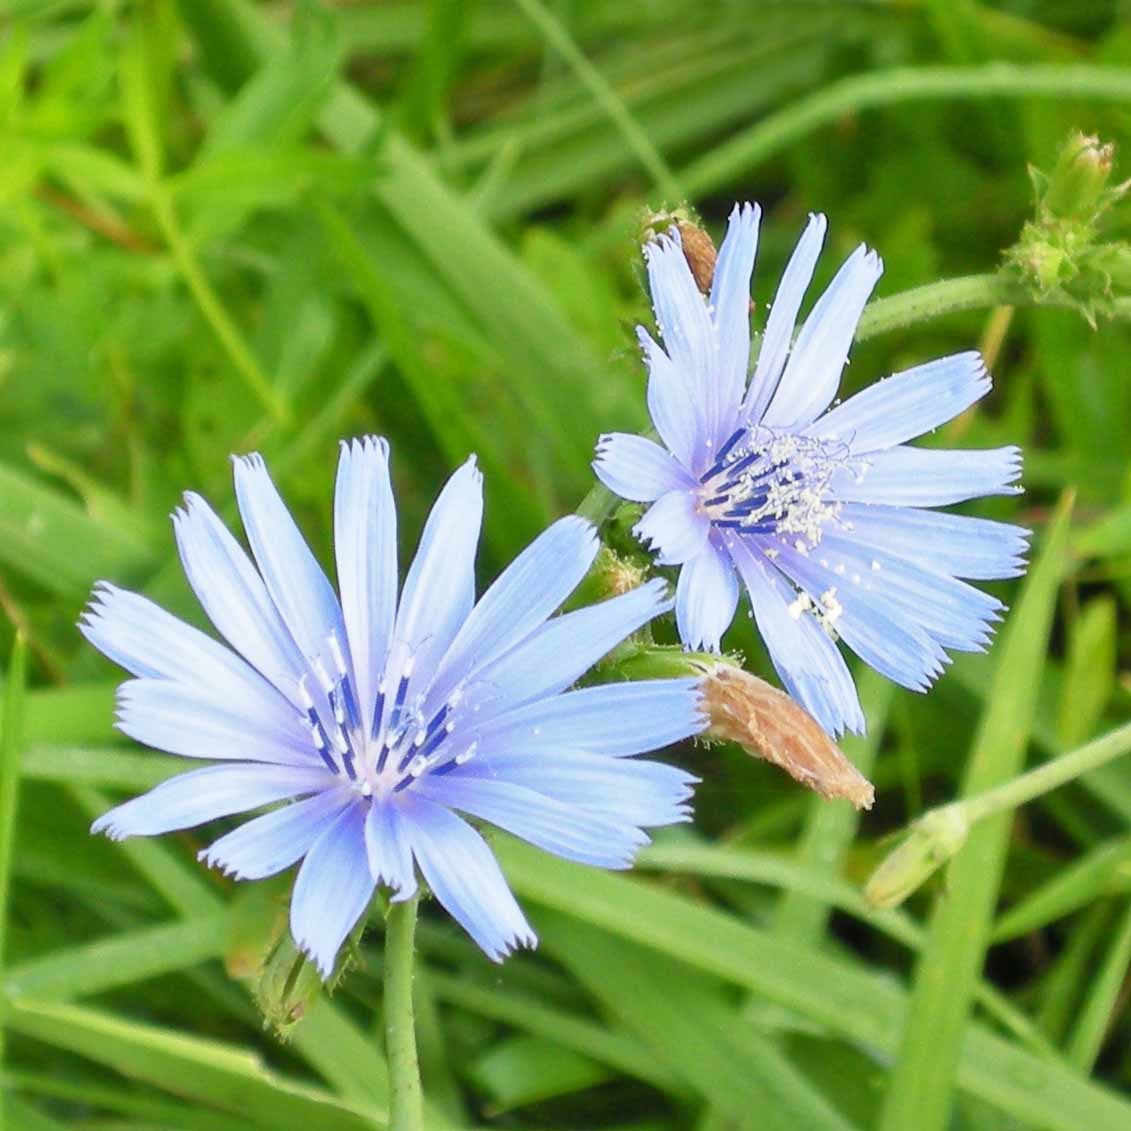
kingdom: Plantae
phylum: Tracheophyta
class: Magnoliopsida
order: Asterales
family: Asteraceae
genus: Cichorium
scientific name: Cichorium intybus
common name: Chicory
